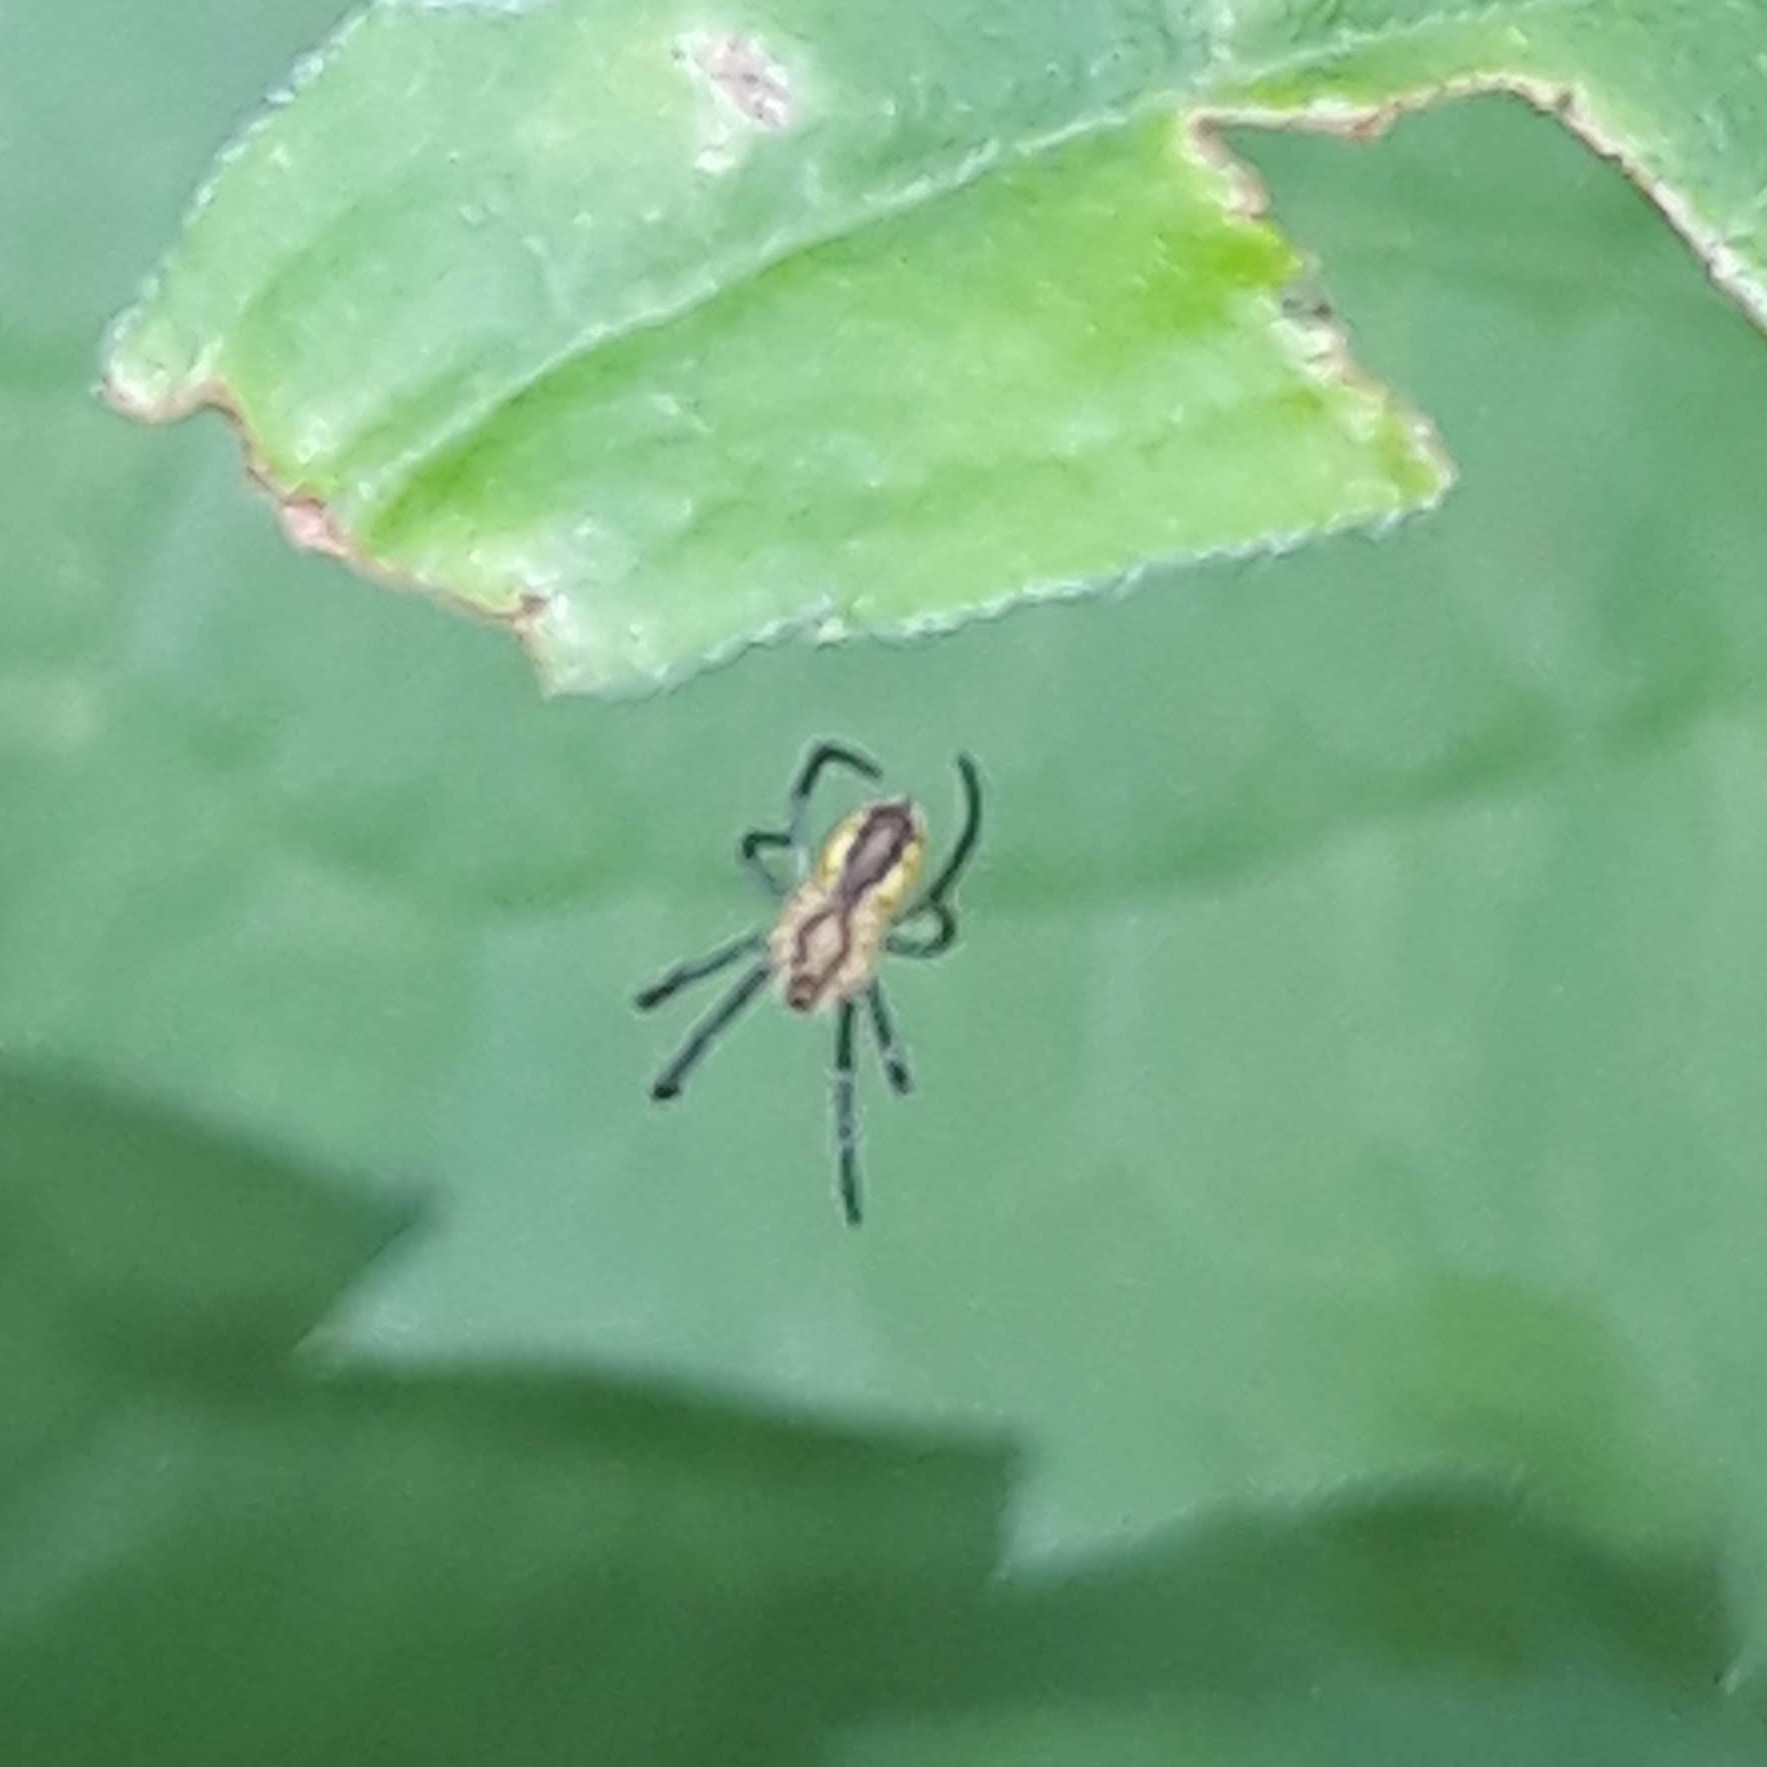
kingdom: Animalia
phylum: Arthropoda
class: Arachnida
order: Araneae
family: Araneidae
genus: Mecynogea
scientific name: Mecynogea lemniscata
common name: Orb weavers
